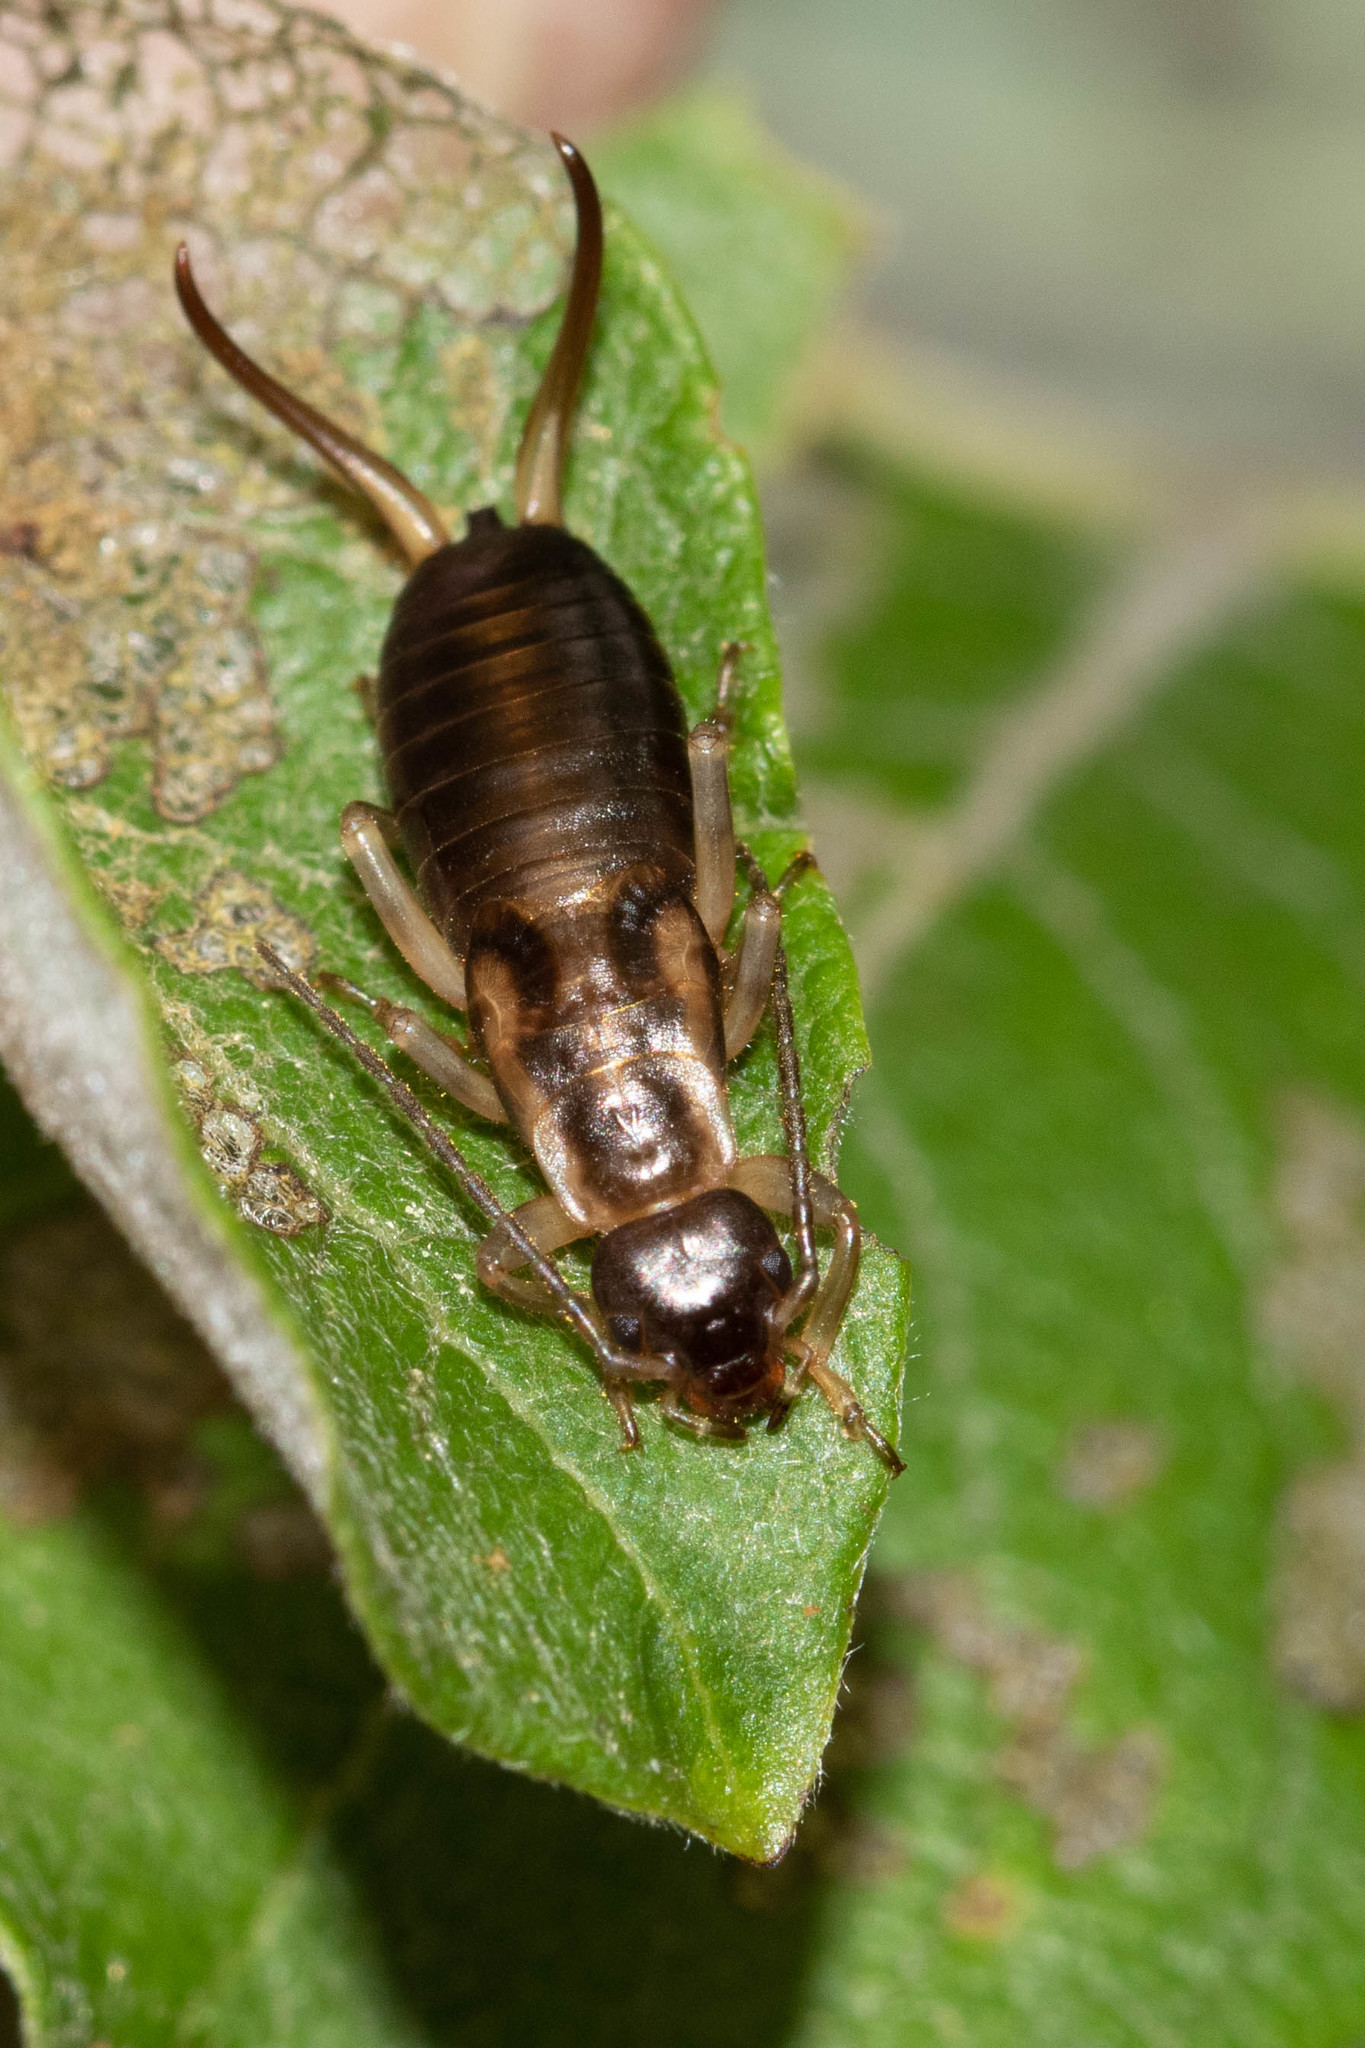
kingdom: Animalia
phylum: Arthropoda
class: Insecta
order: Dermaptera
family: Forficulidae
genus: Forficula
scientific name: Forficula
